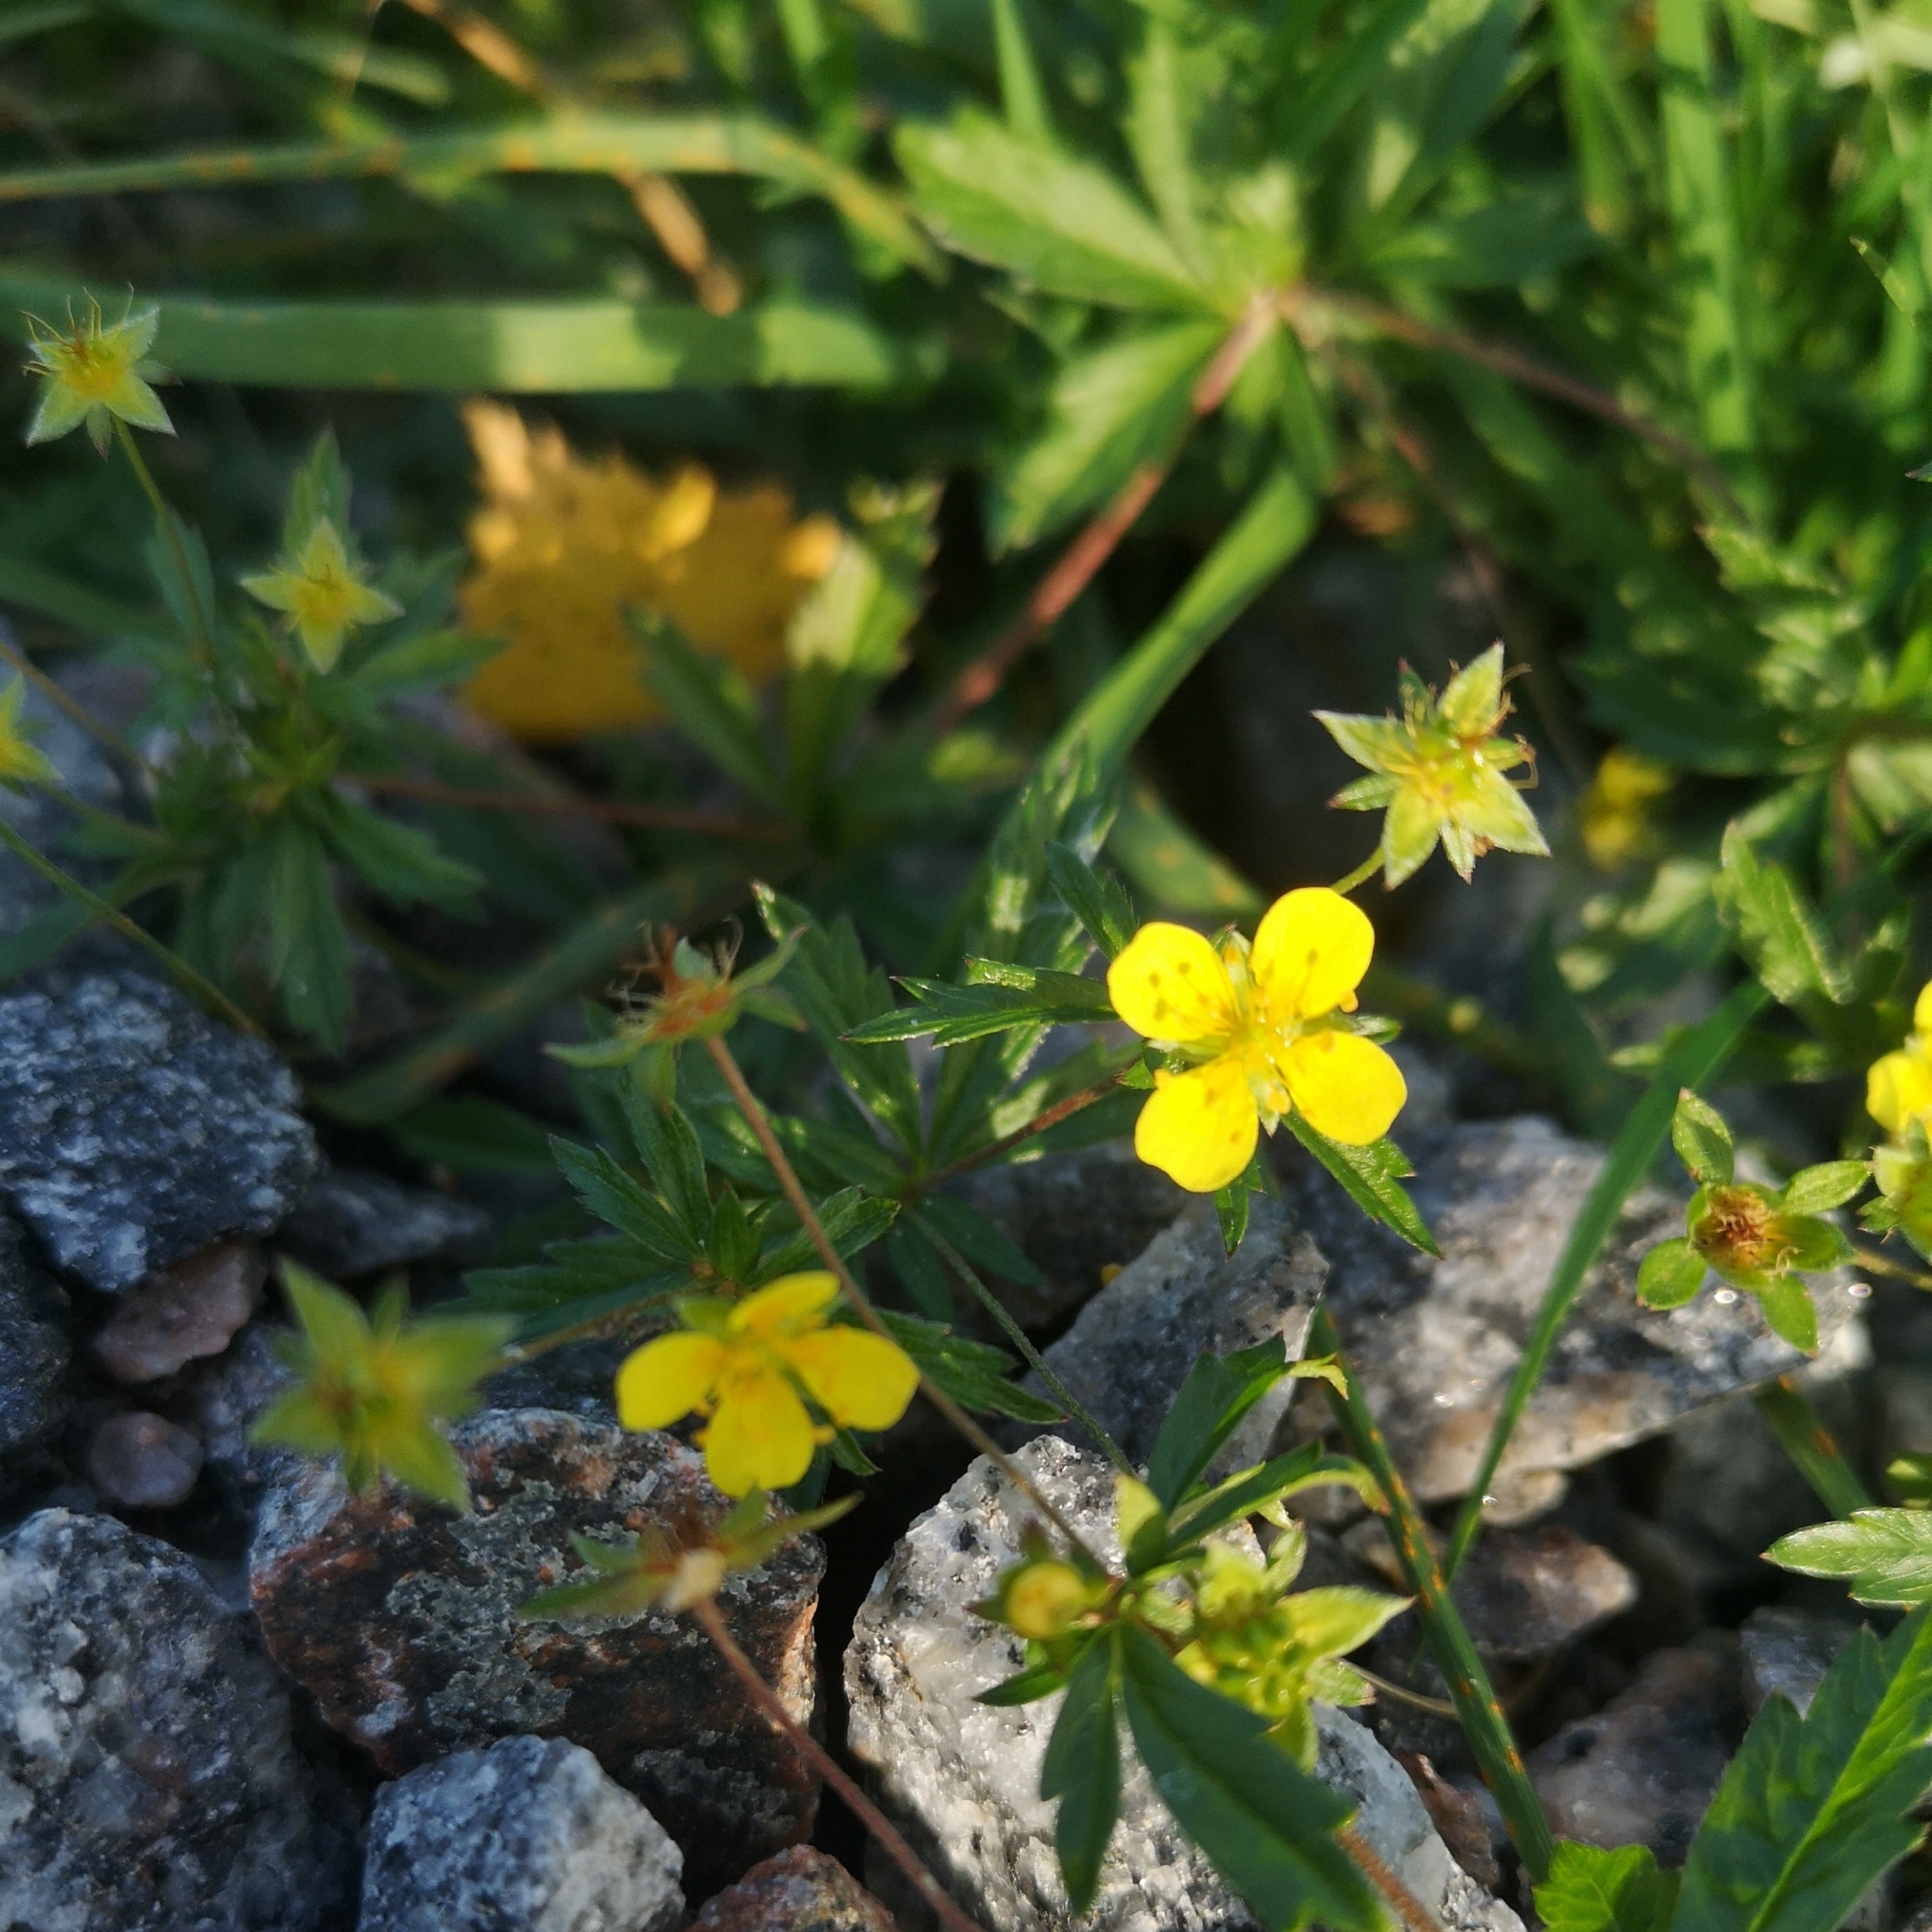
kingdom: Plantae
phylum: Tracheophyta
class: Magnoliopsida
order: Rosales
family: Rosaceae
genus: Potentilla
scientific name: Potentilla erecta
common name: Tormentil
